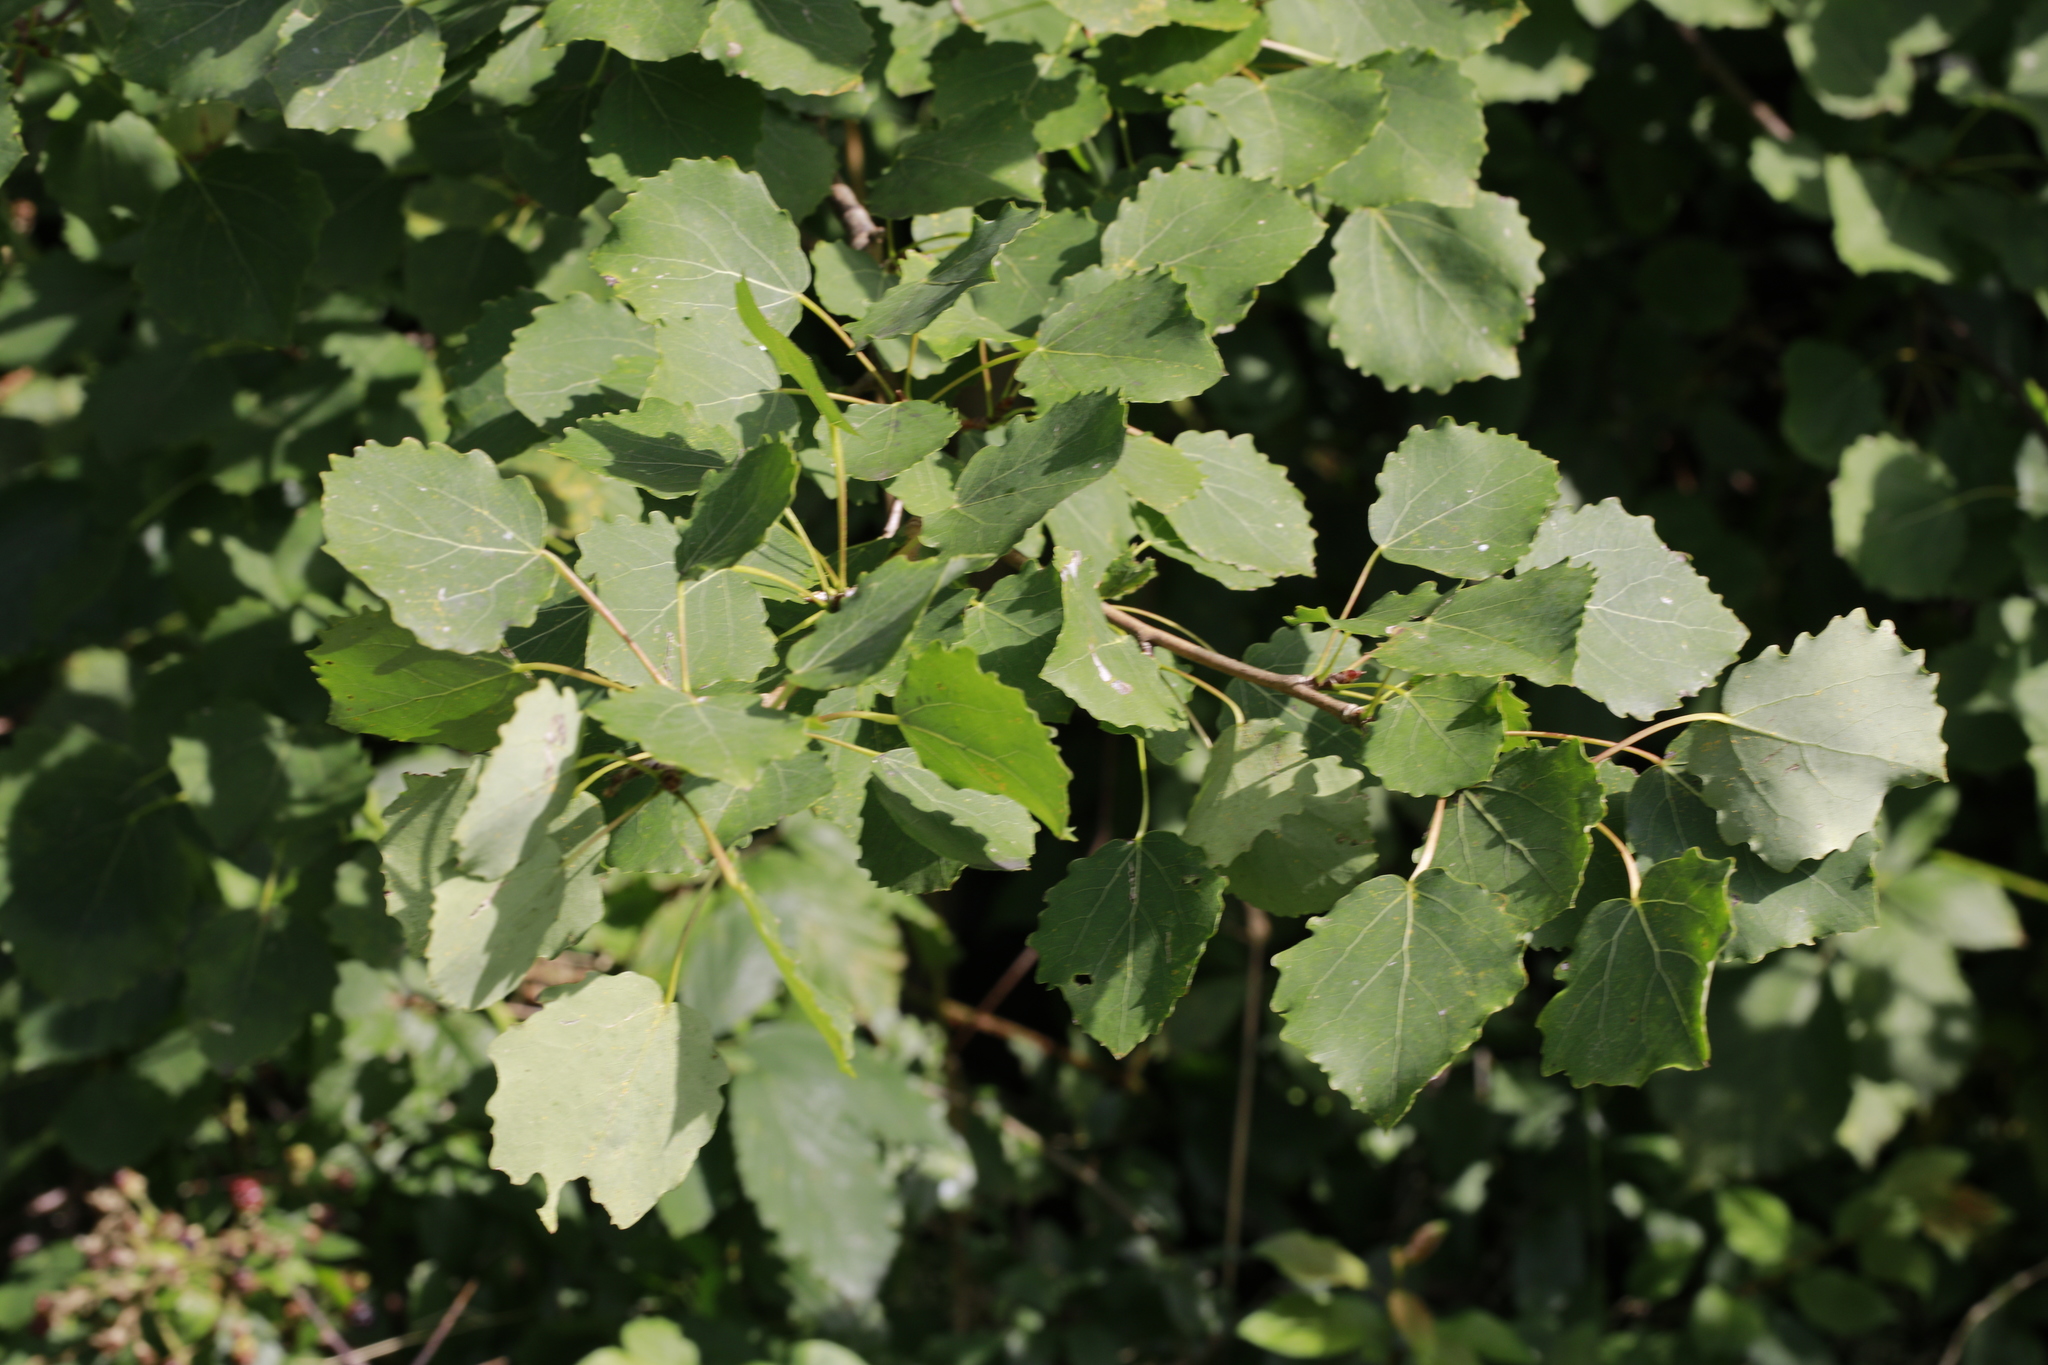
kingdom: Plantae
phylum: Tracheophyta
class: Magnoliopsida
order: Malpighiales
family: Salicaceae
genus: Populus
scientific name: Populus tremula
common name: European aspen
